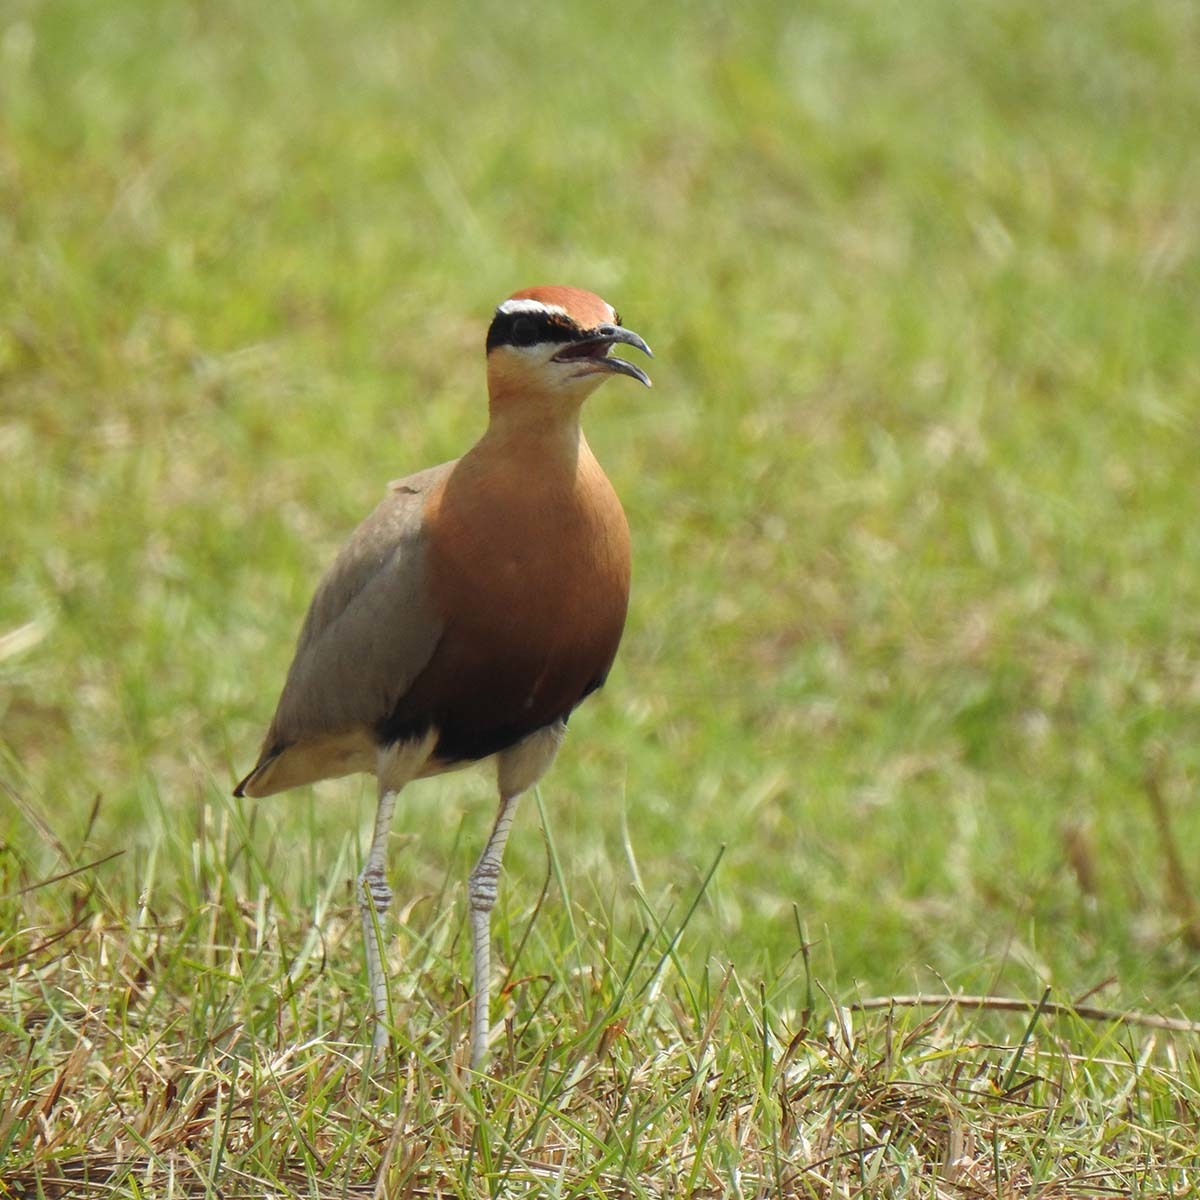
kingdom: Animalia
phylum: Chordata
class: Aves
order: Charadriiformes
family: Glareolidae
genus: Cursorius
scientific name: Cursorius coromandelicus
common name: Indian courser
